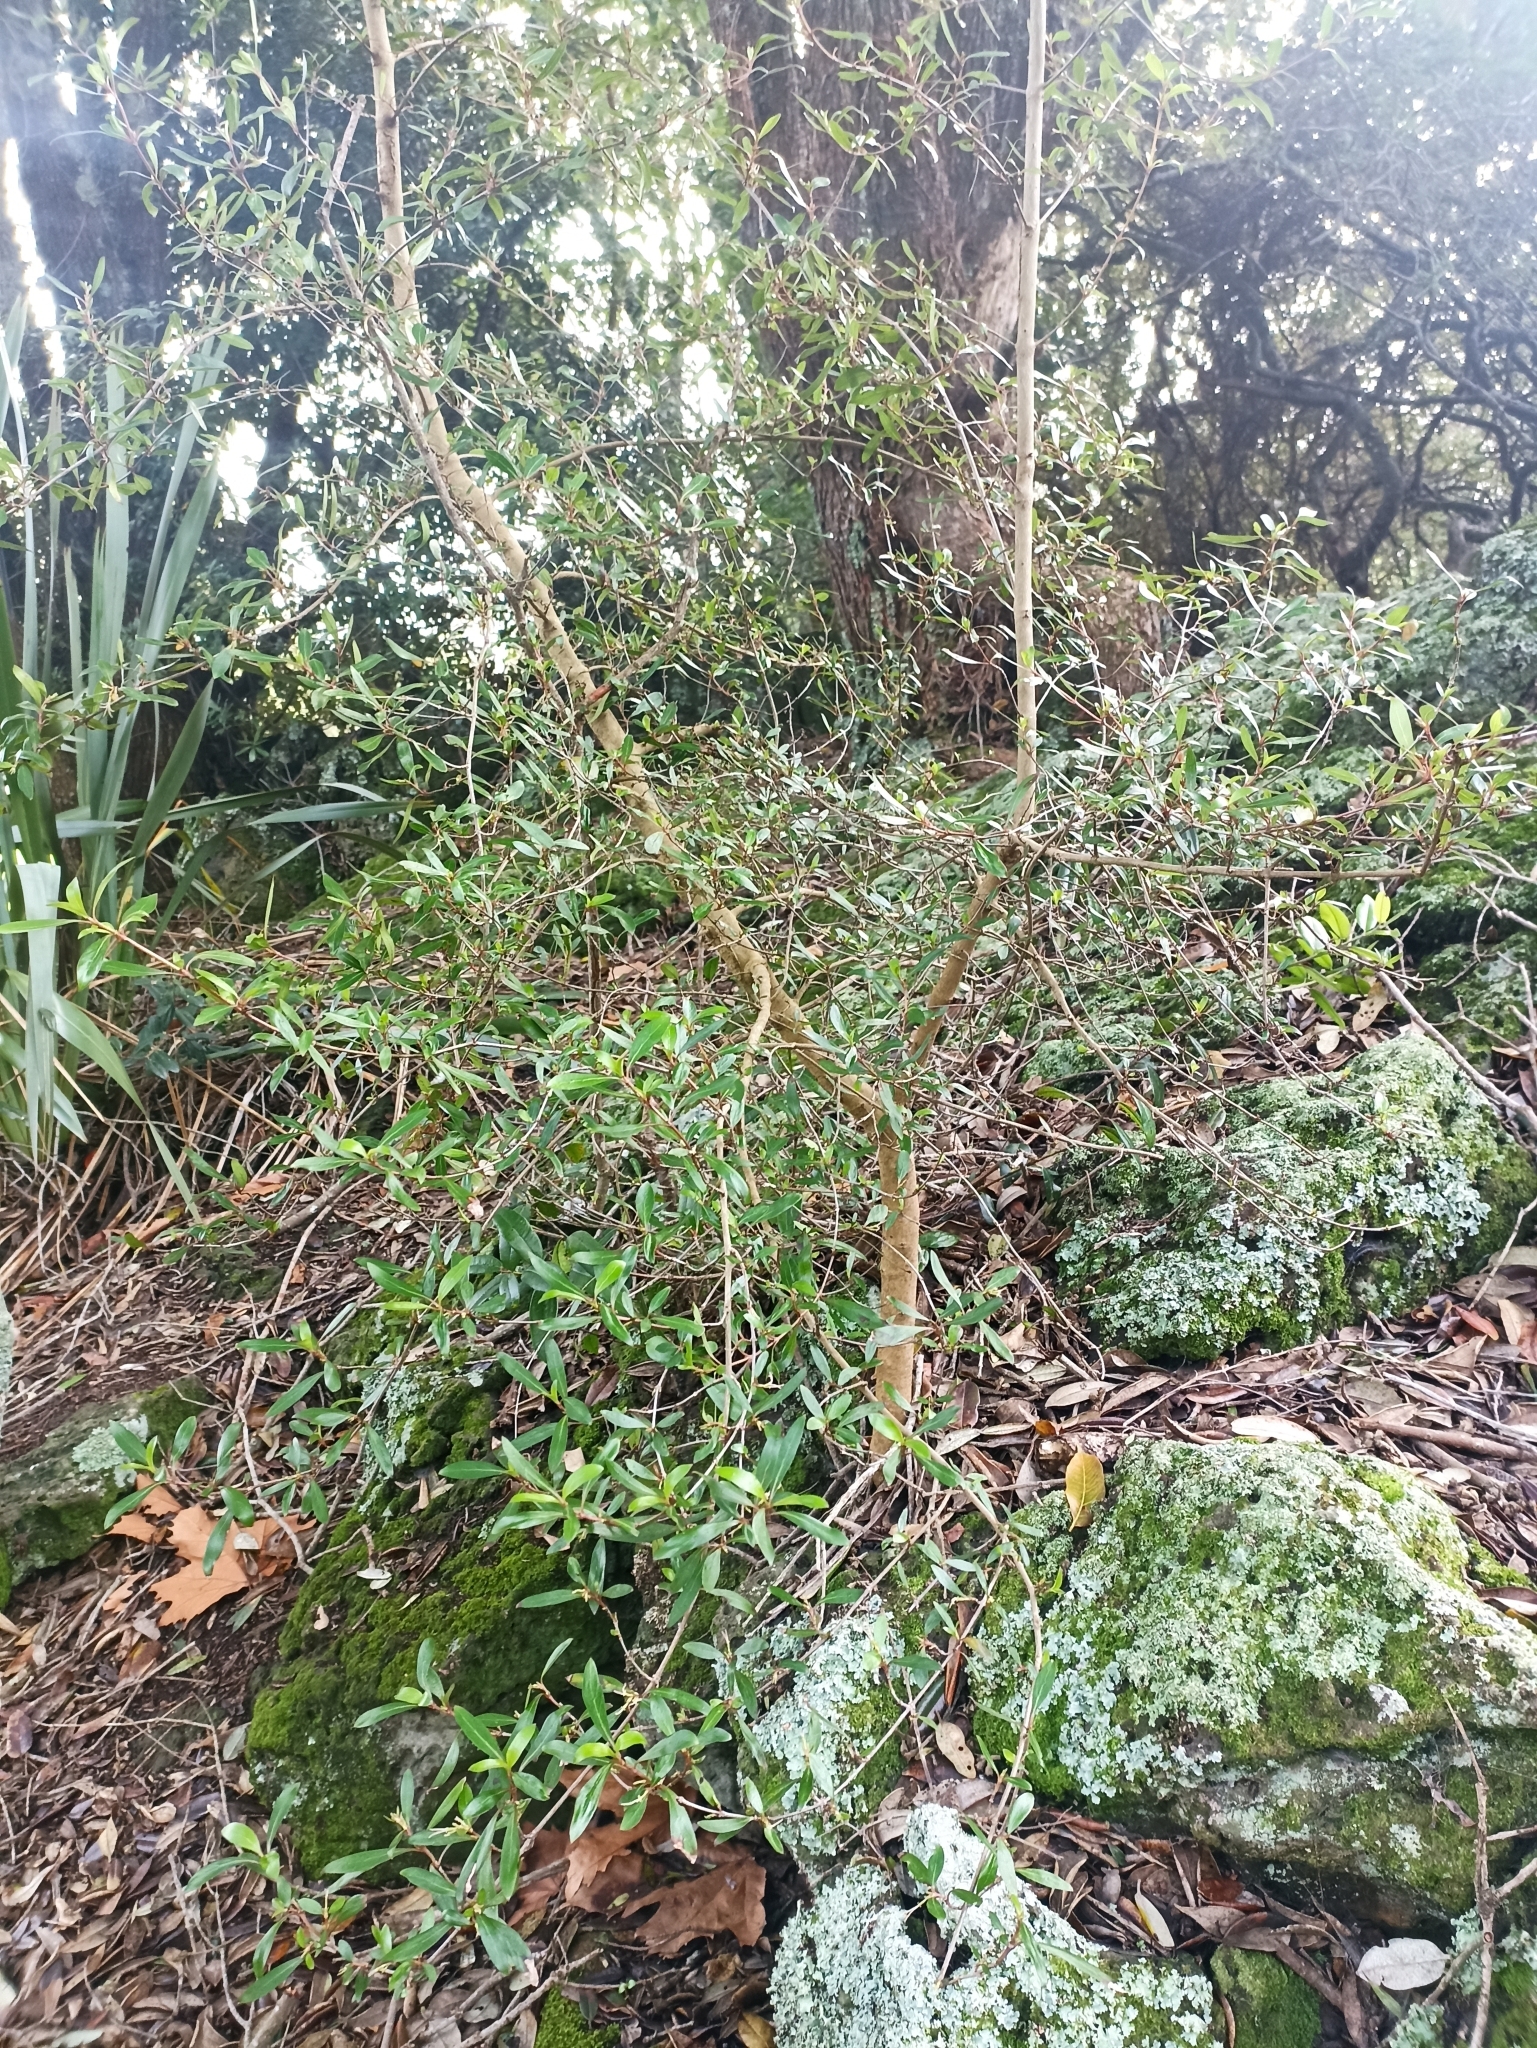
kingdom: Plantae
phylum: Tracheophyta
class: Magnoliopsida
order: Gentianales
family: Rubiaceae
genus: Coprosma
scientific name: Coprosma cunninghamii
